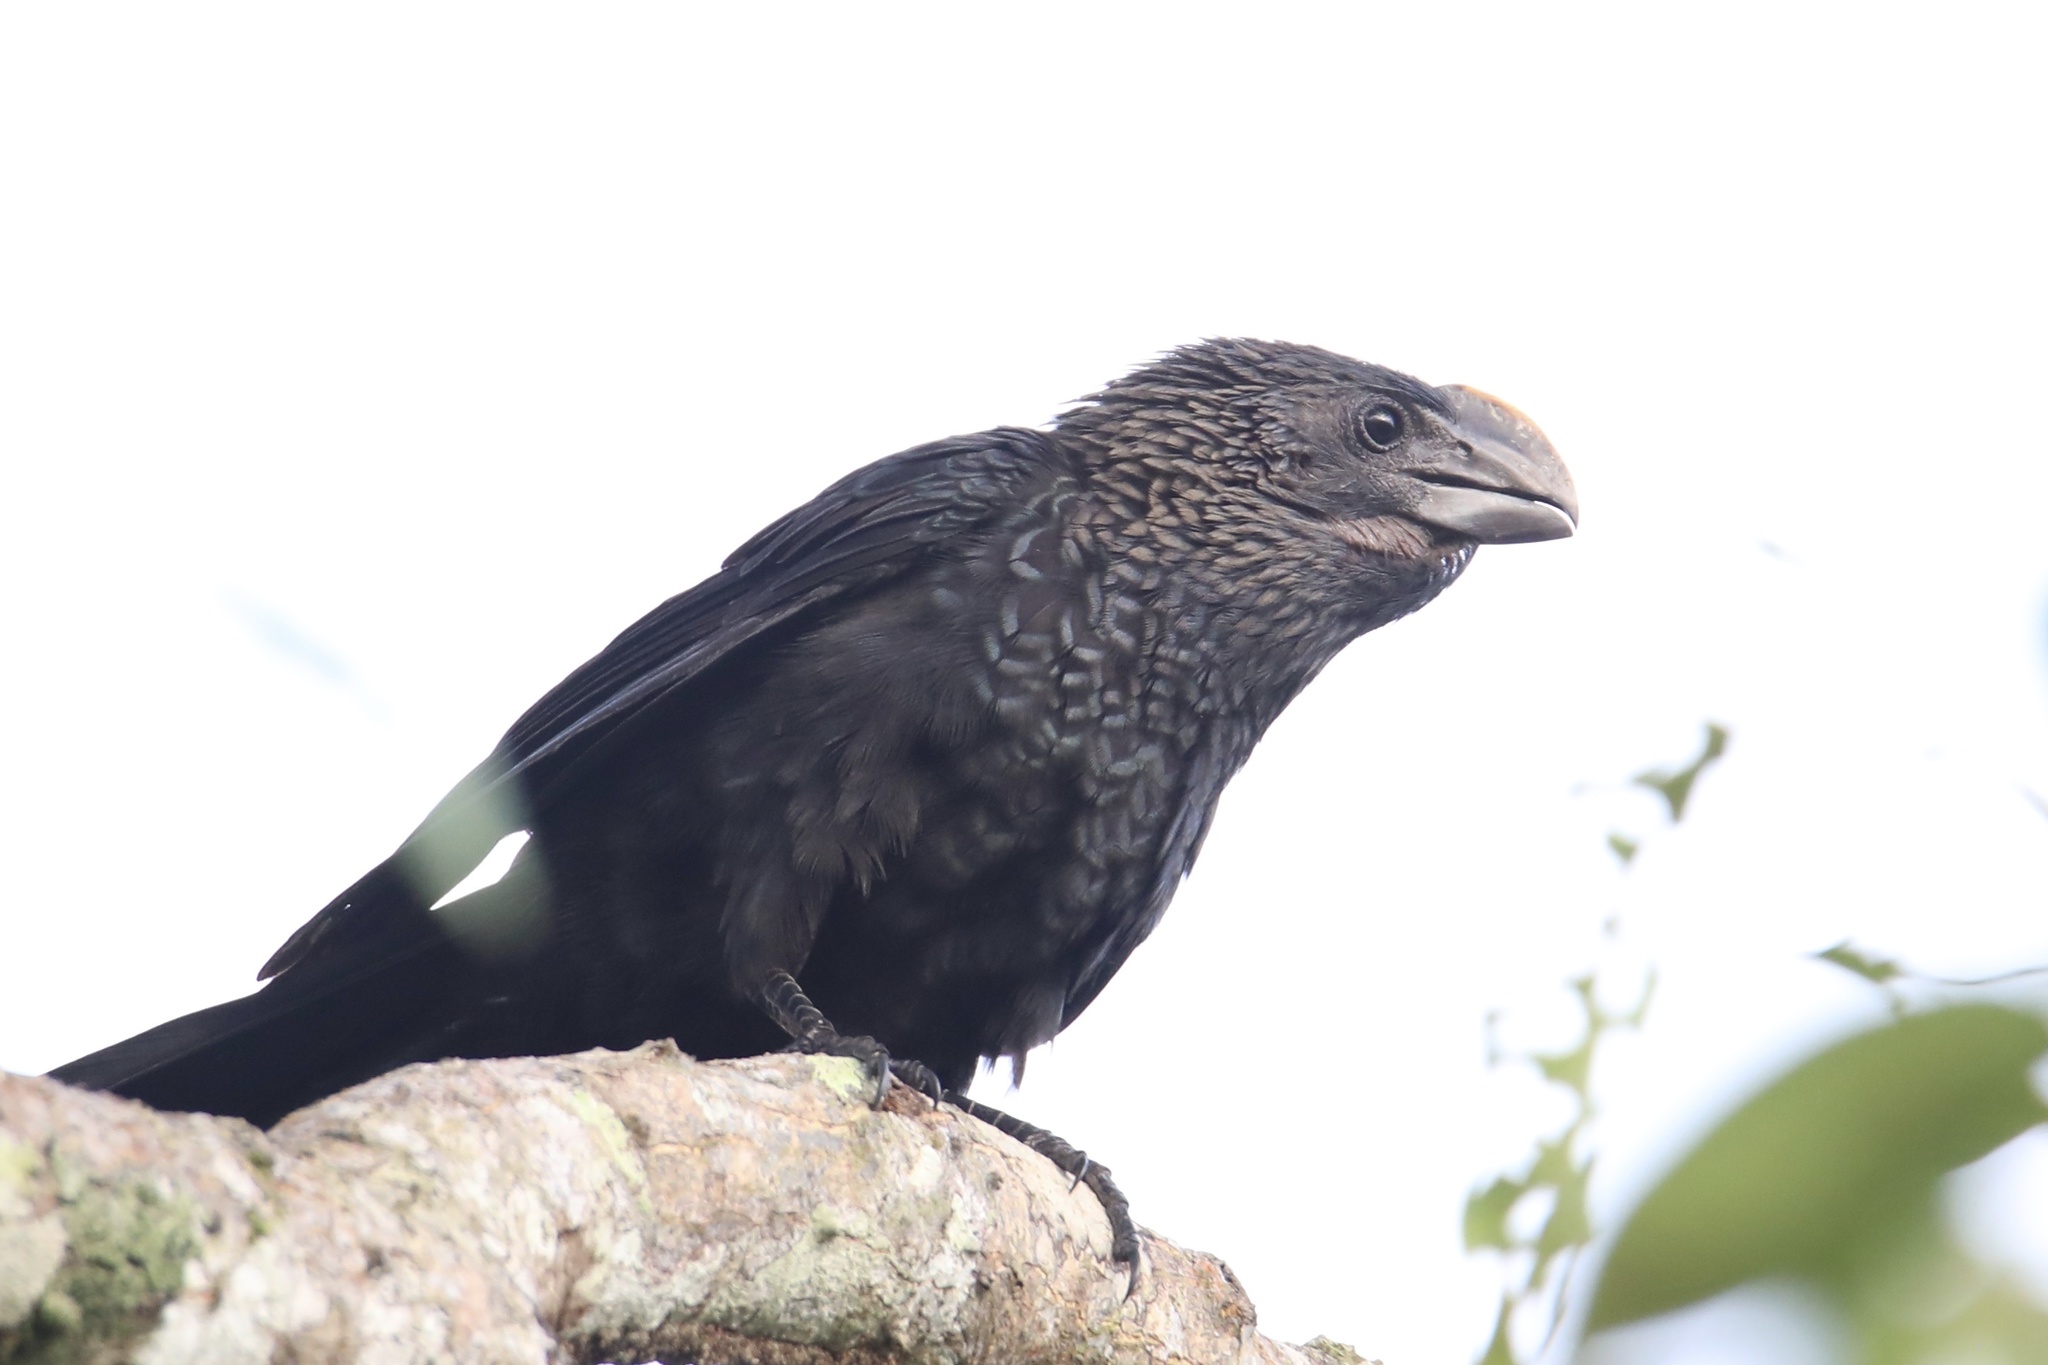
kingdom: Animalia
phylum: Chordata
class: Aves
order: Cuculiformes
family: Cuculidae
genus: Crotophaga
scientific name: Crotophaga ani
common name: Smooth-billed ani
